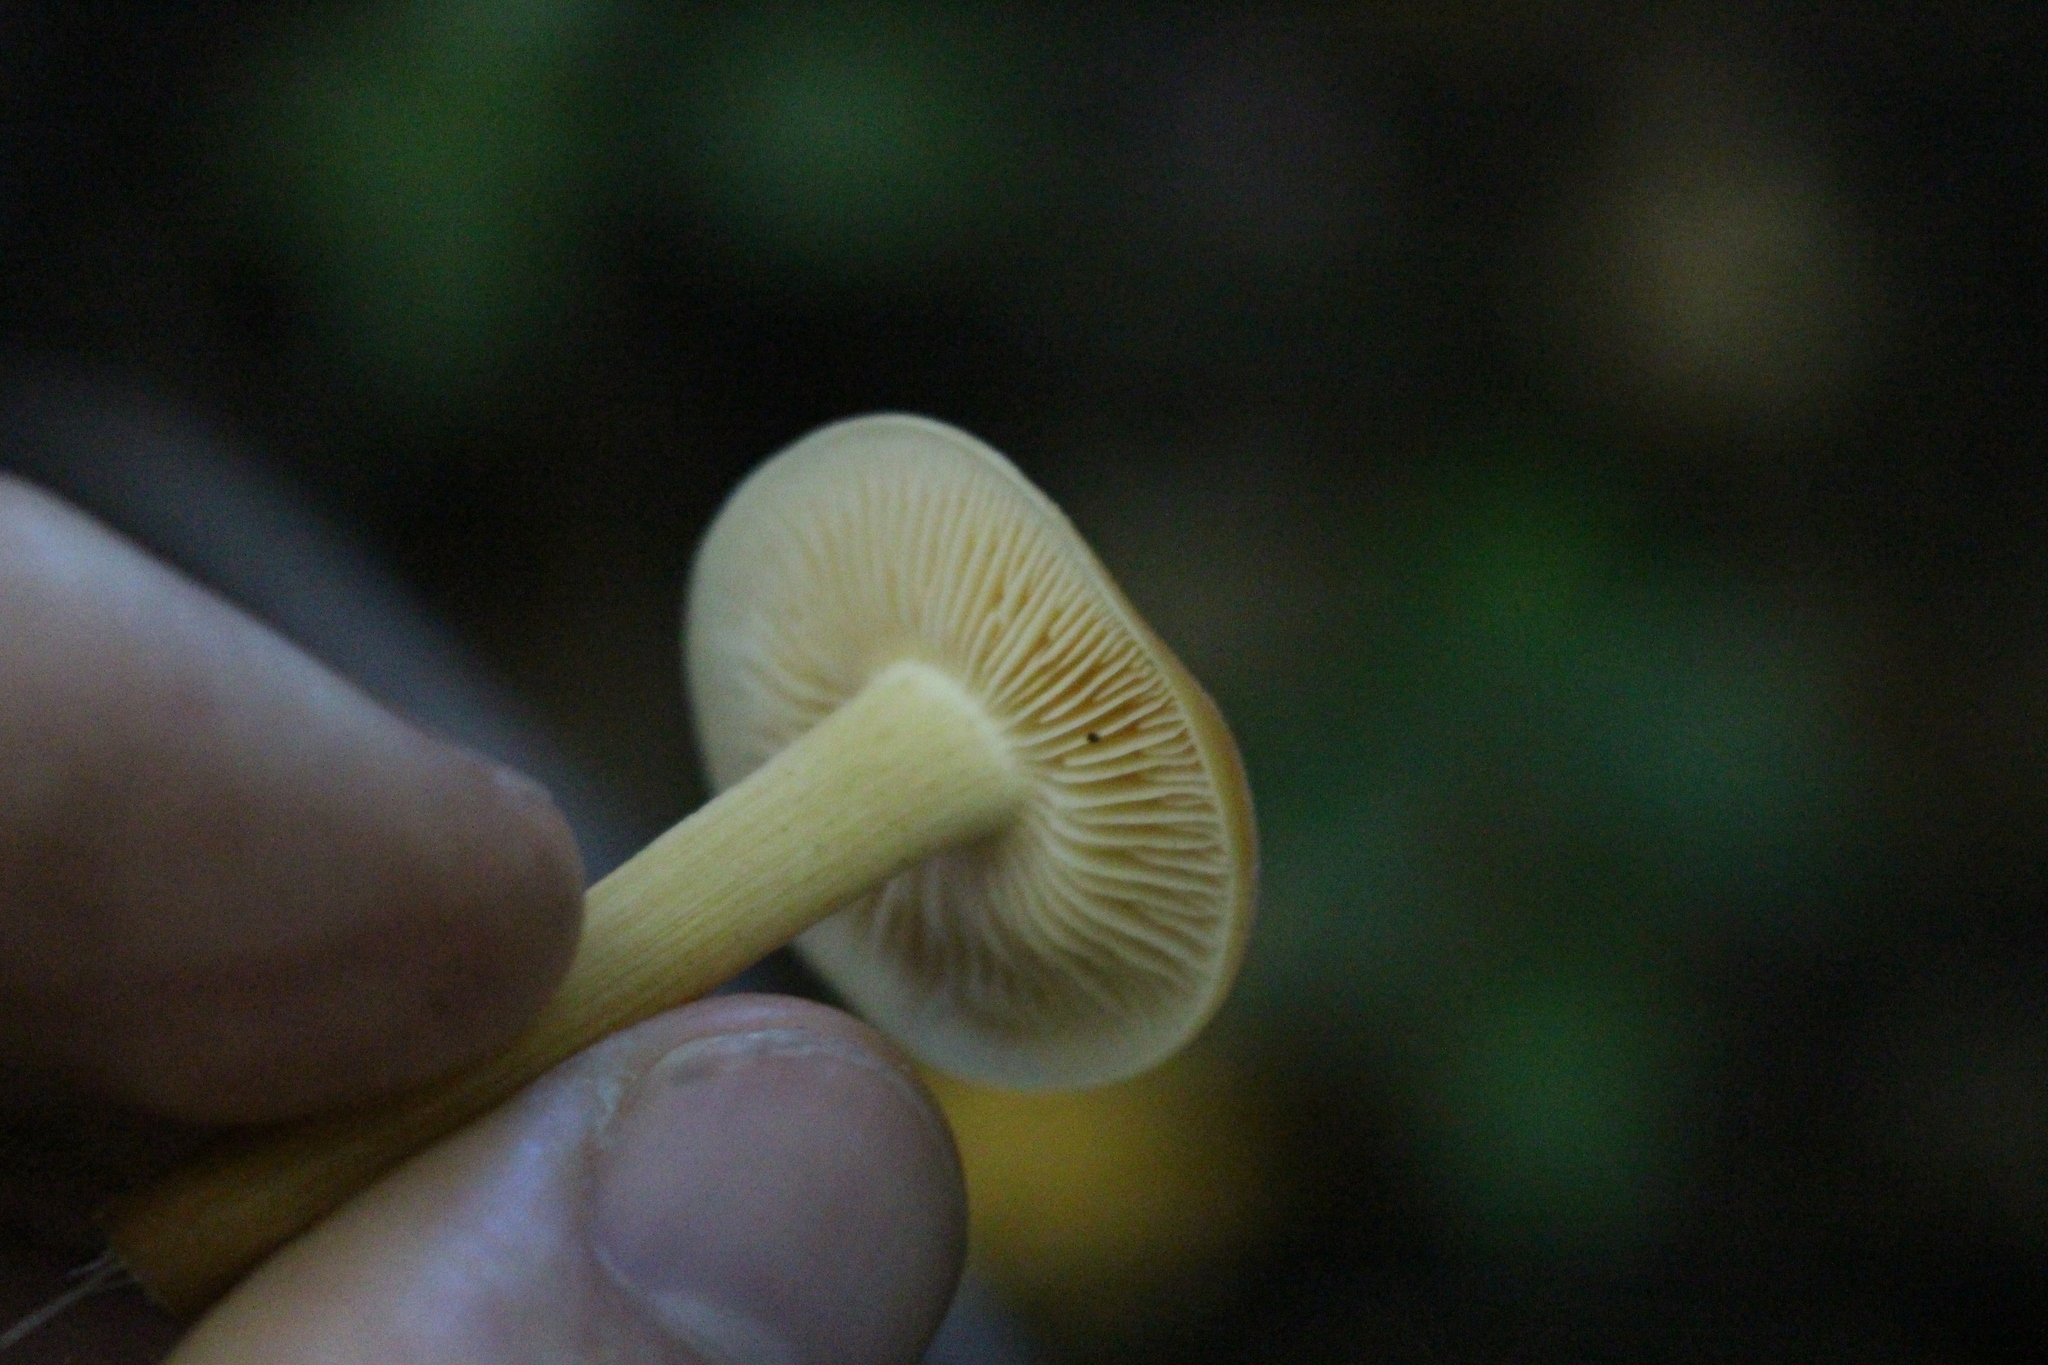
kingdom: Fungi
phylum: Basidiomycota
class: Agaricomycetes
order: Agaricales
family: Physalacriaceae
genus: Flammulina
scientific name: Flammulina velutipes
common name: Velvet shank
